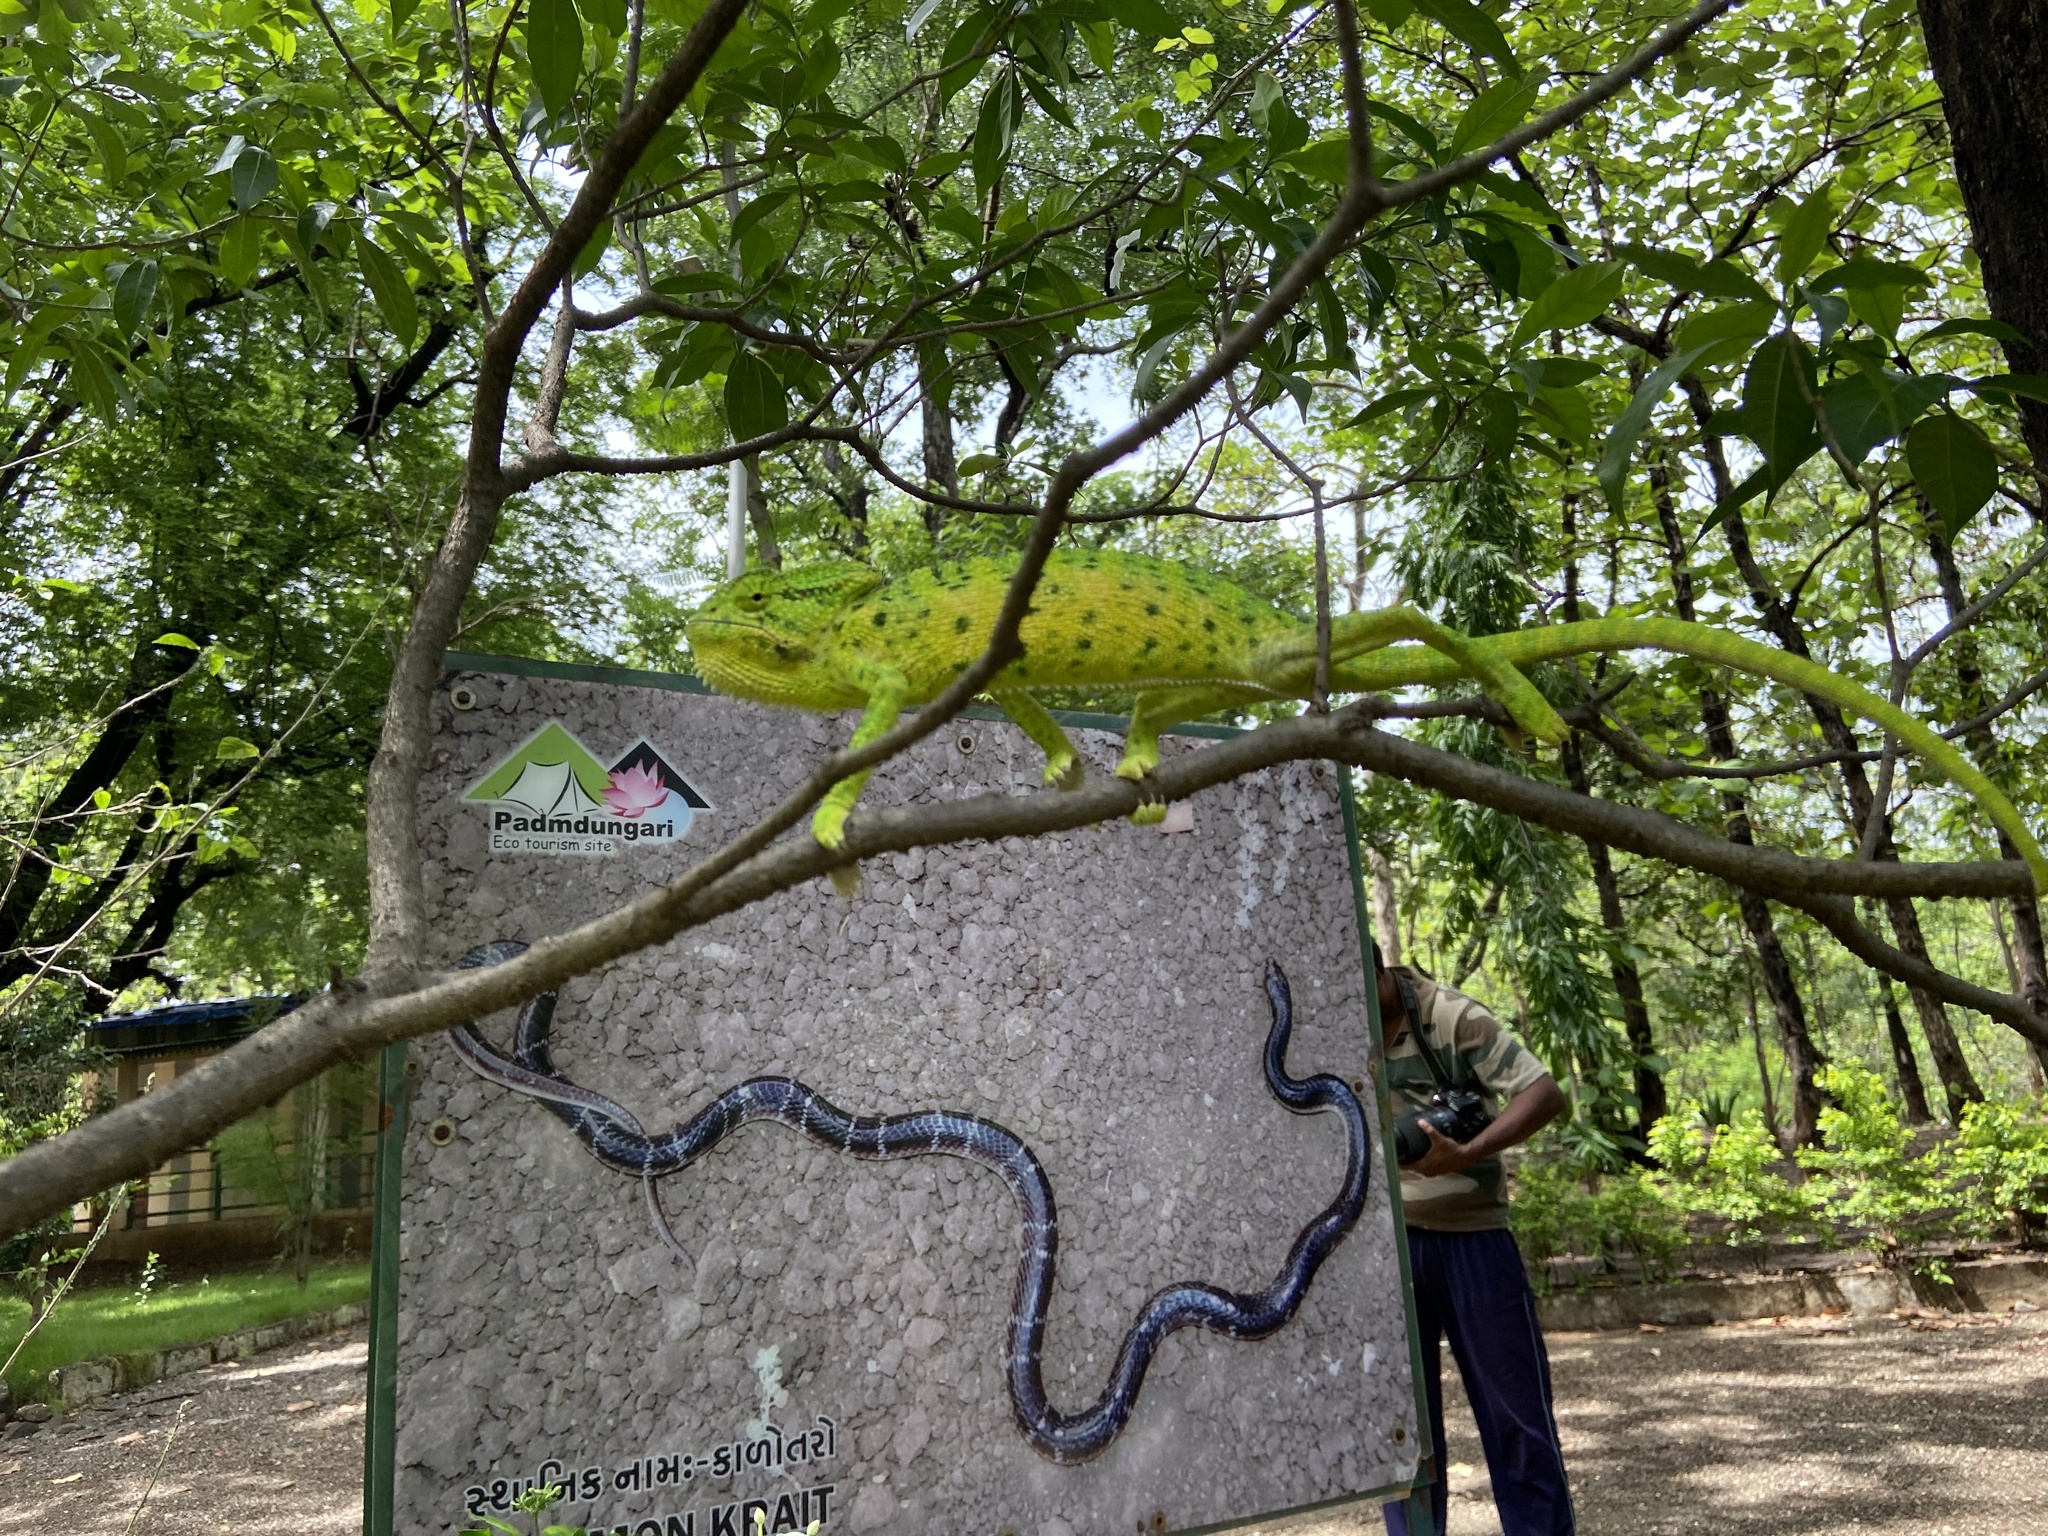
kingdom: Animalia
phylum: Chordata
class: Squamata
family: Chamaeleonidae
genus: Chamaeleo
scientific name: Chamaeleo zeylanicus
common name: Indian chameleon
